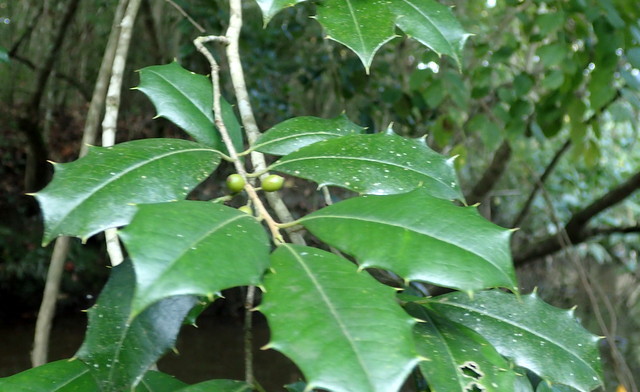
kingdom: Plantae
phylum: Tracheophyta
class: Magnoliopsida
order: Aquifoliales
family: Aquifoliaceae
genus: Ilex
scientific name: Ilex opaca
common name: American holly
